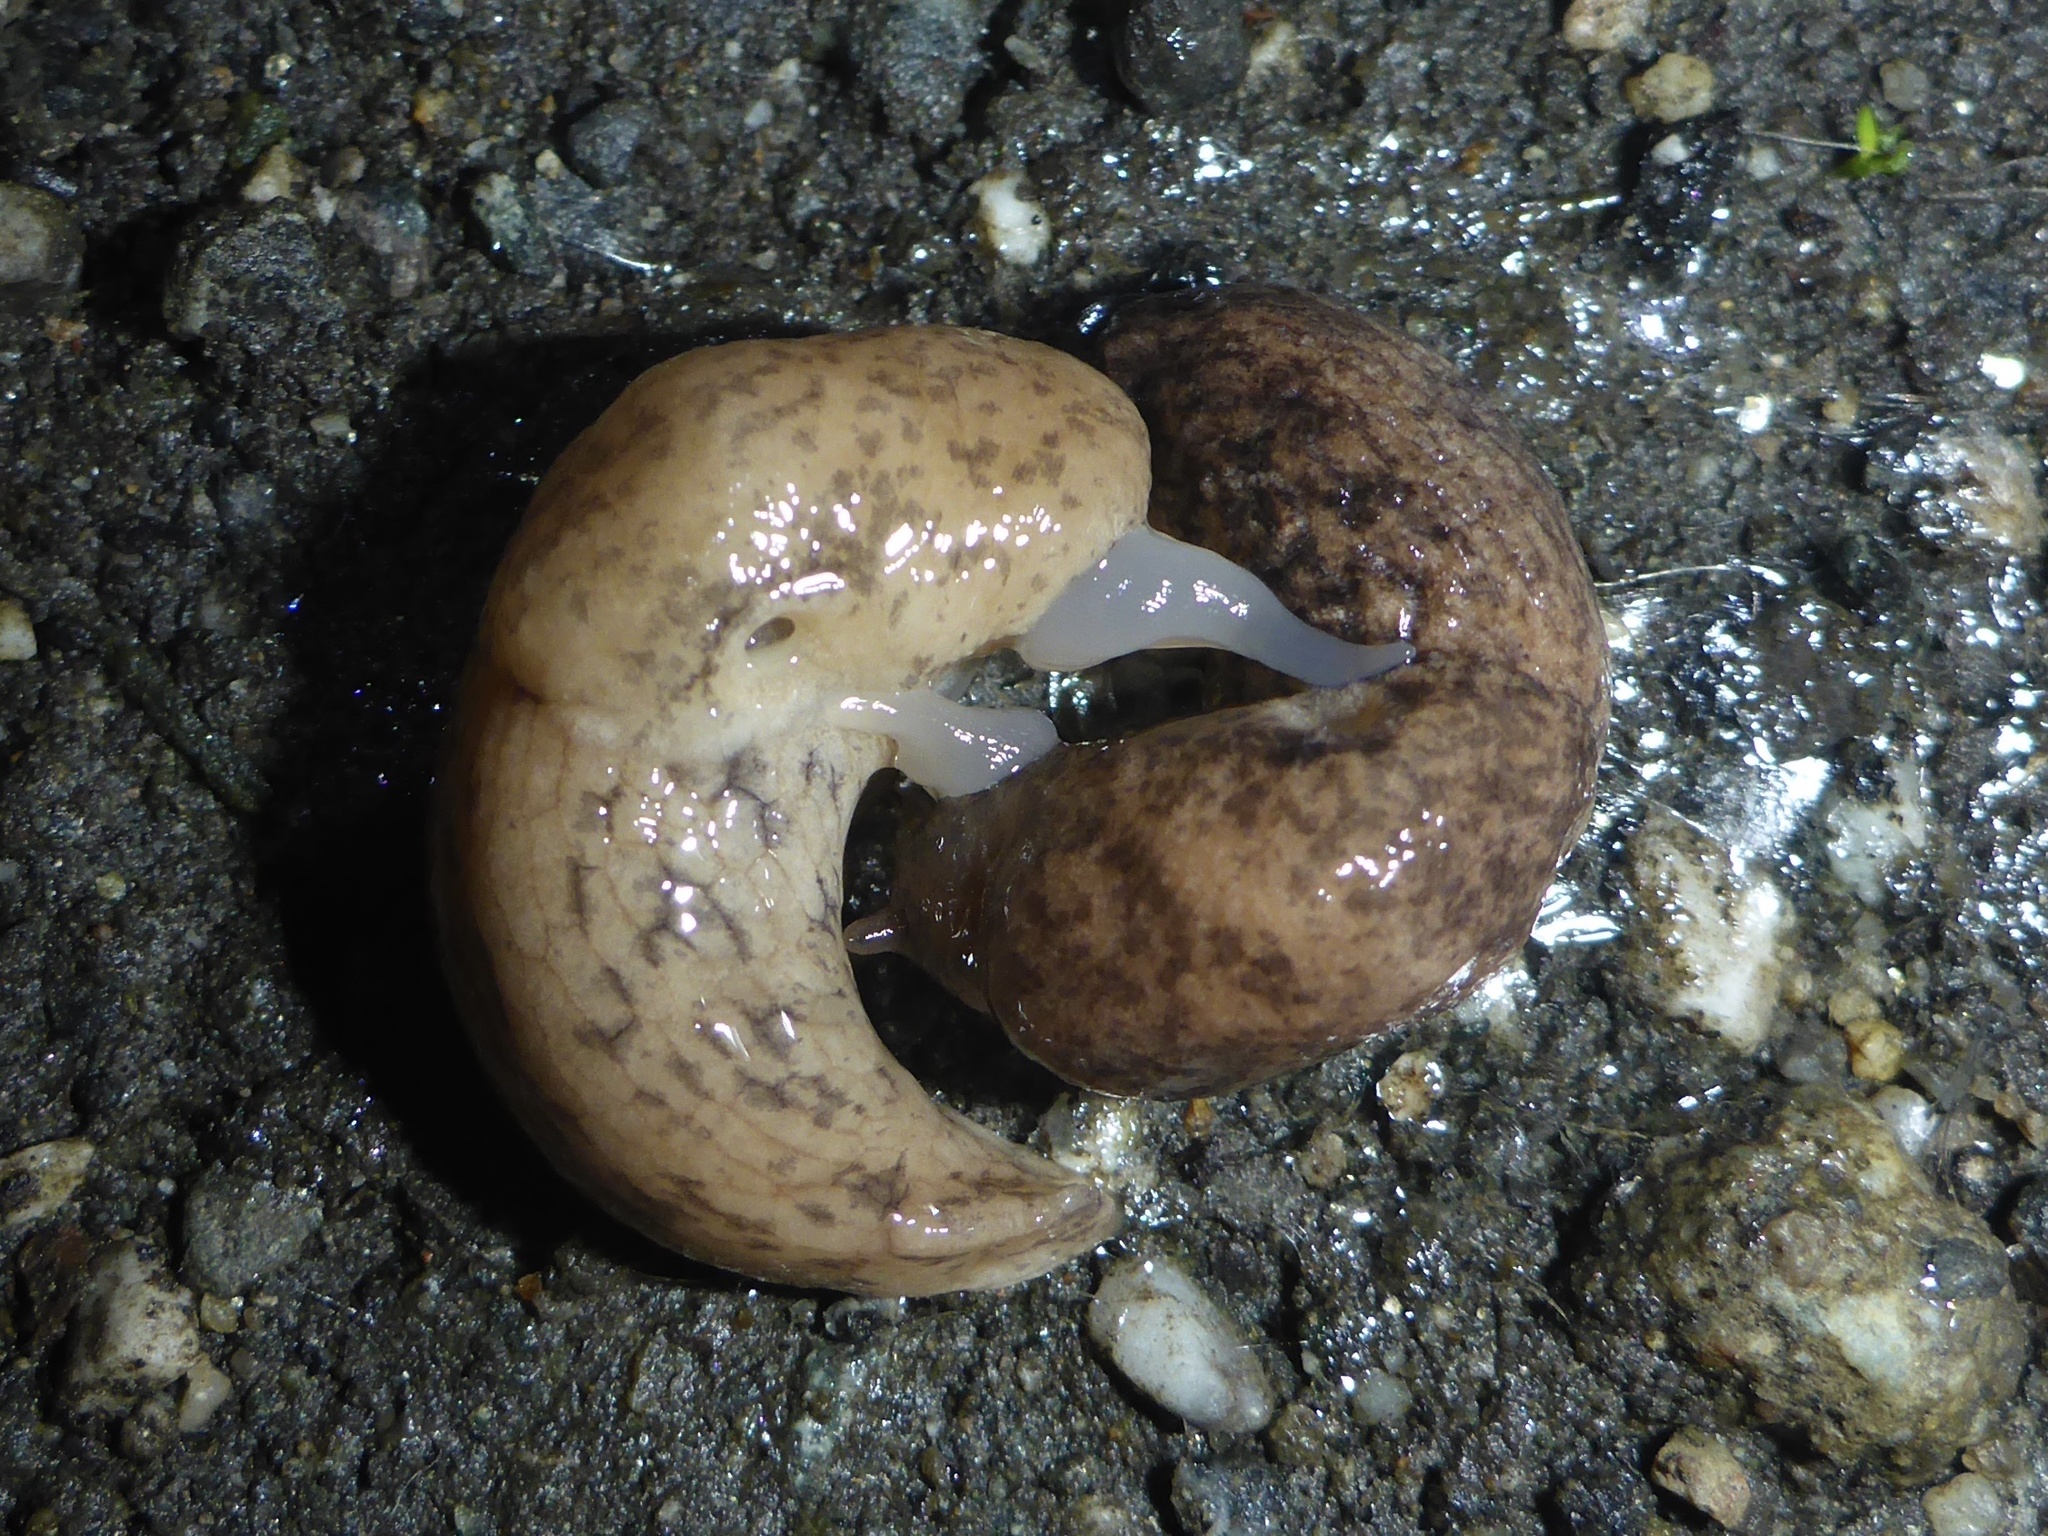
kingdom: Animalia
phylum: Mollusca
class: Gastropoda
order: Stylommatophora
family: Agriolimacidae
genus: Deroceras
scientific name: Deroceras reticulatum
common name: Gray field slug
